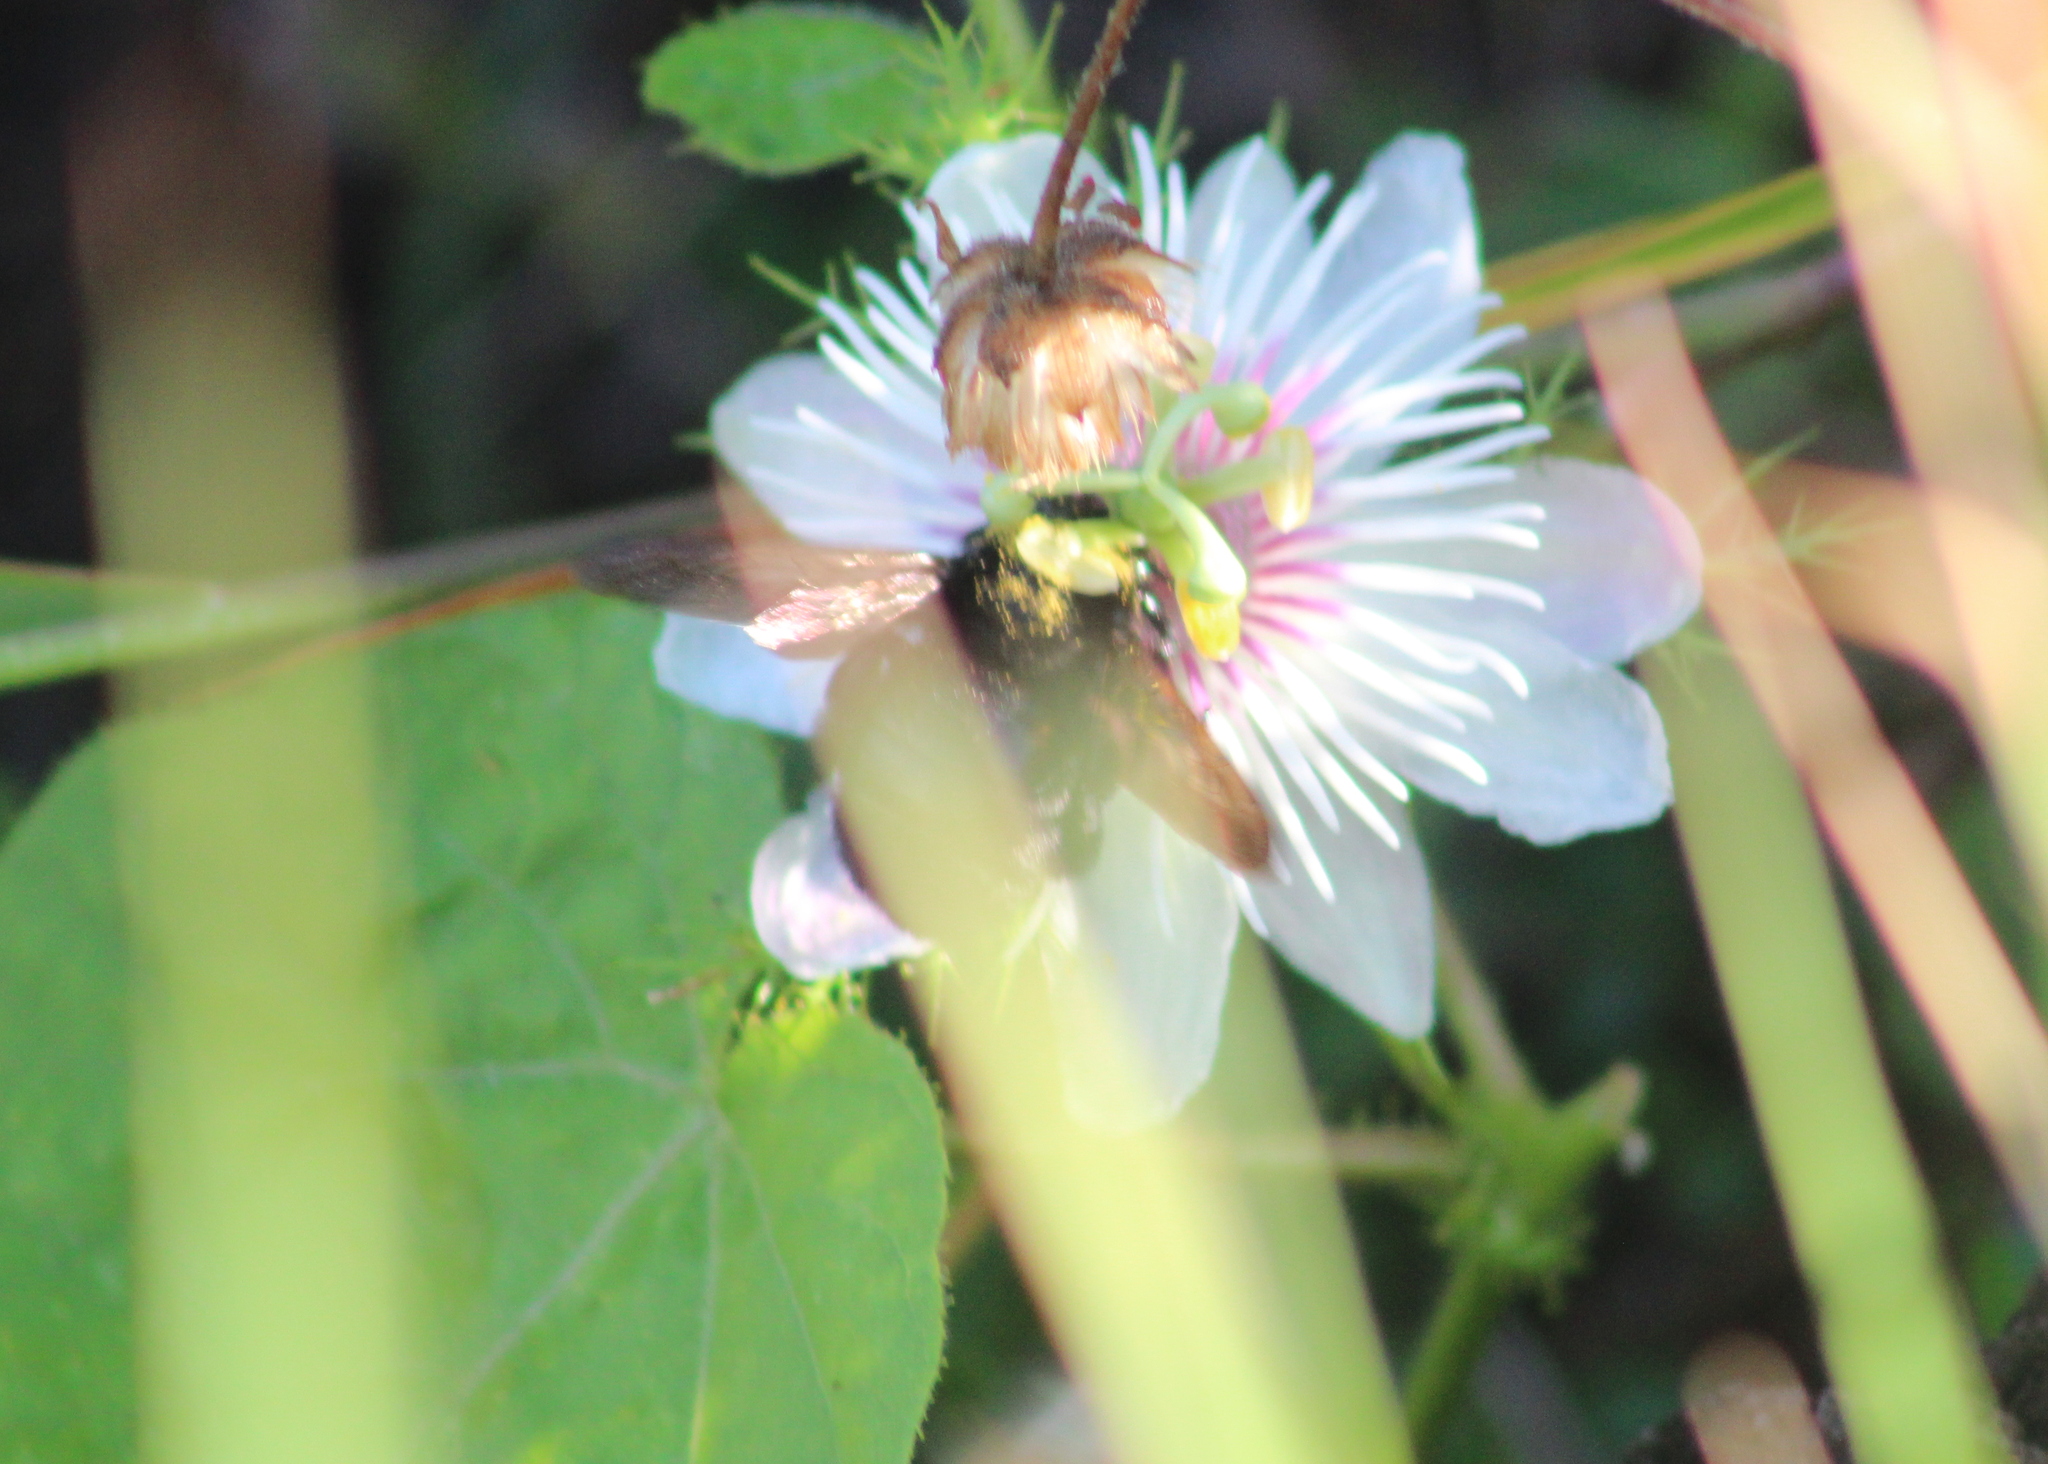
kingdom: Animalia
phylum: Arthropoda
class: Insecta
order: Hymenoptera
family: Apidae
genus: Xylocopa
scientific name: Xylocopa sonorina
